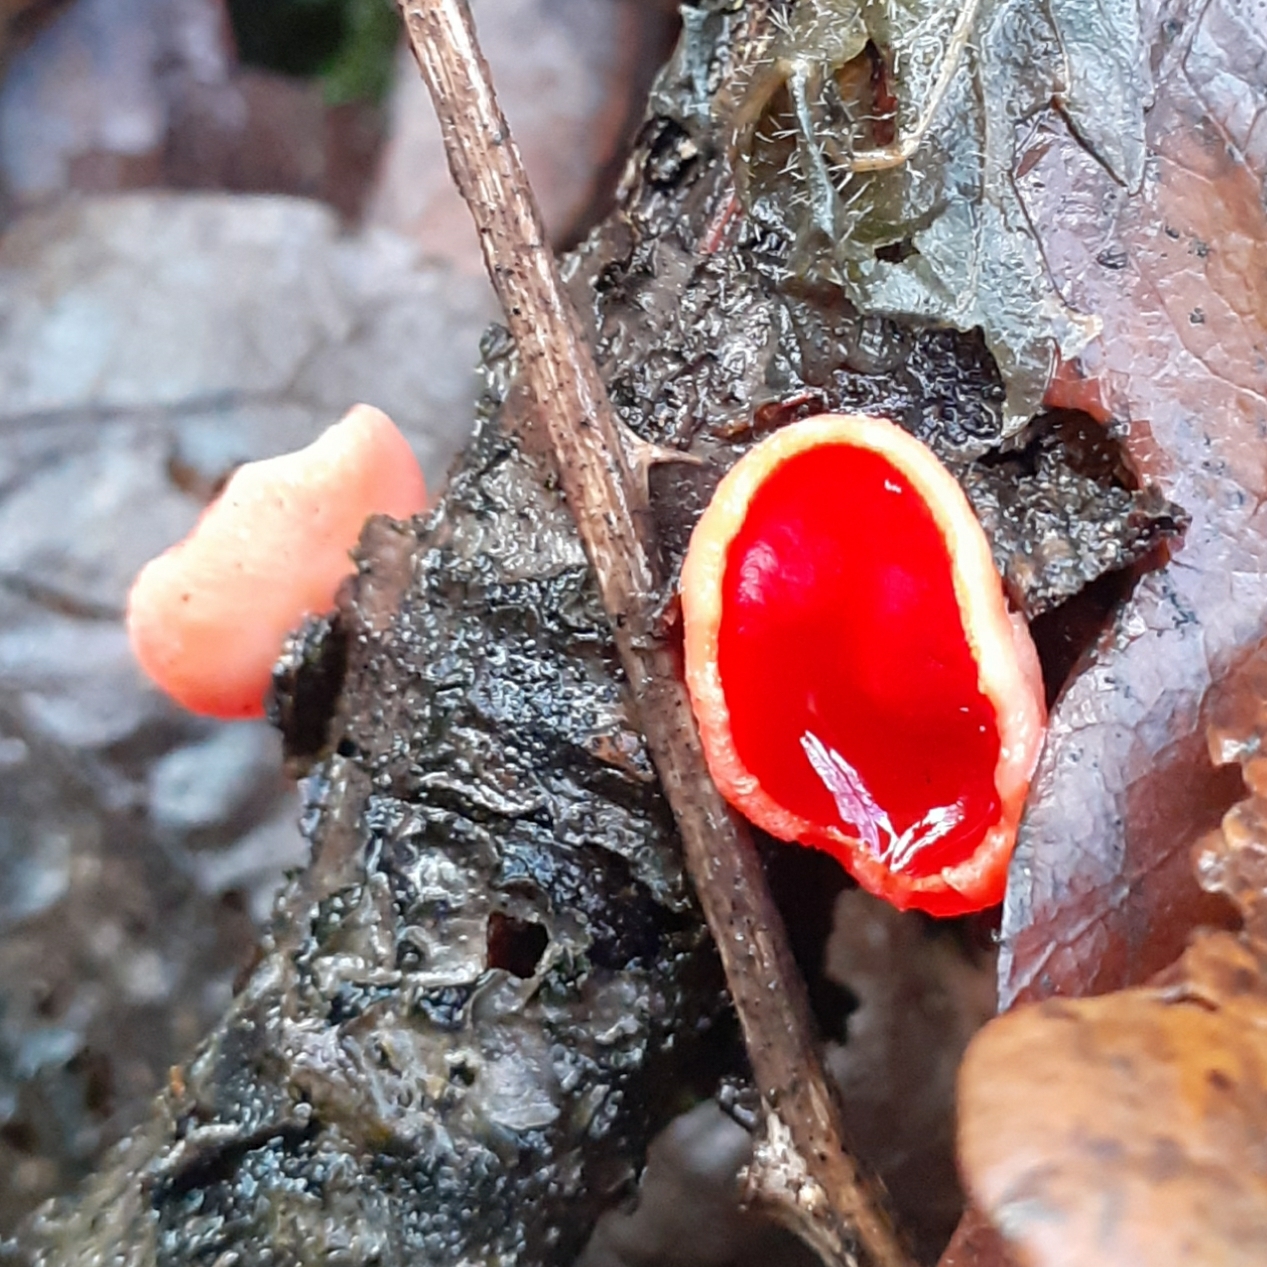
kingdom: Fungi
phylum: Ascomycota
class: Pezizomycetes
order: Pezizales
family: Sarcoscyphaceae
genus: Sarcoscypha
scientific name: Sarcoscypha
